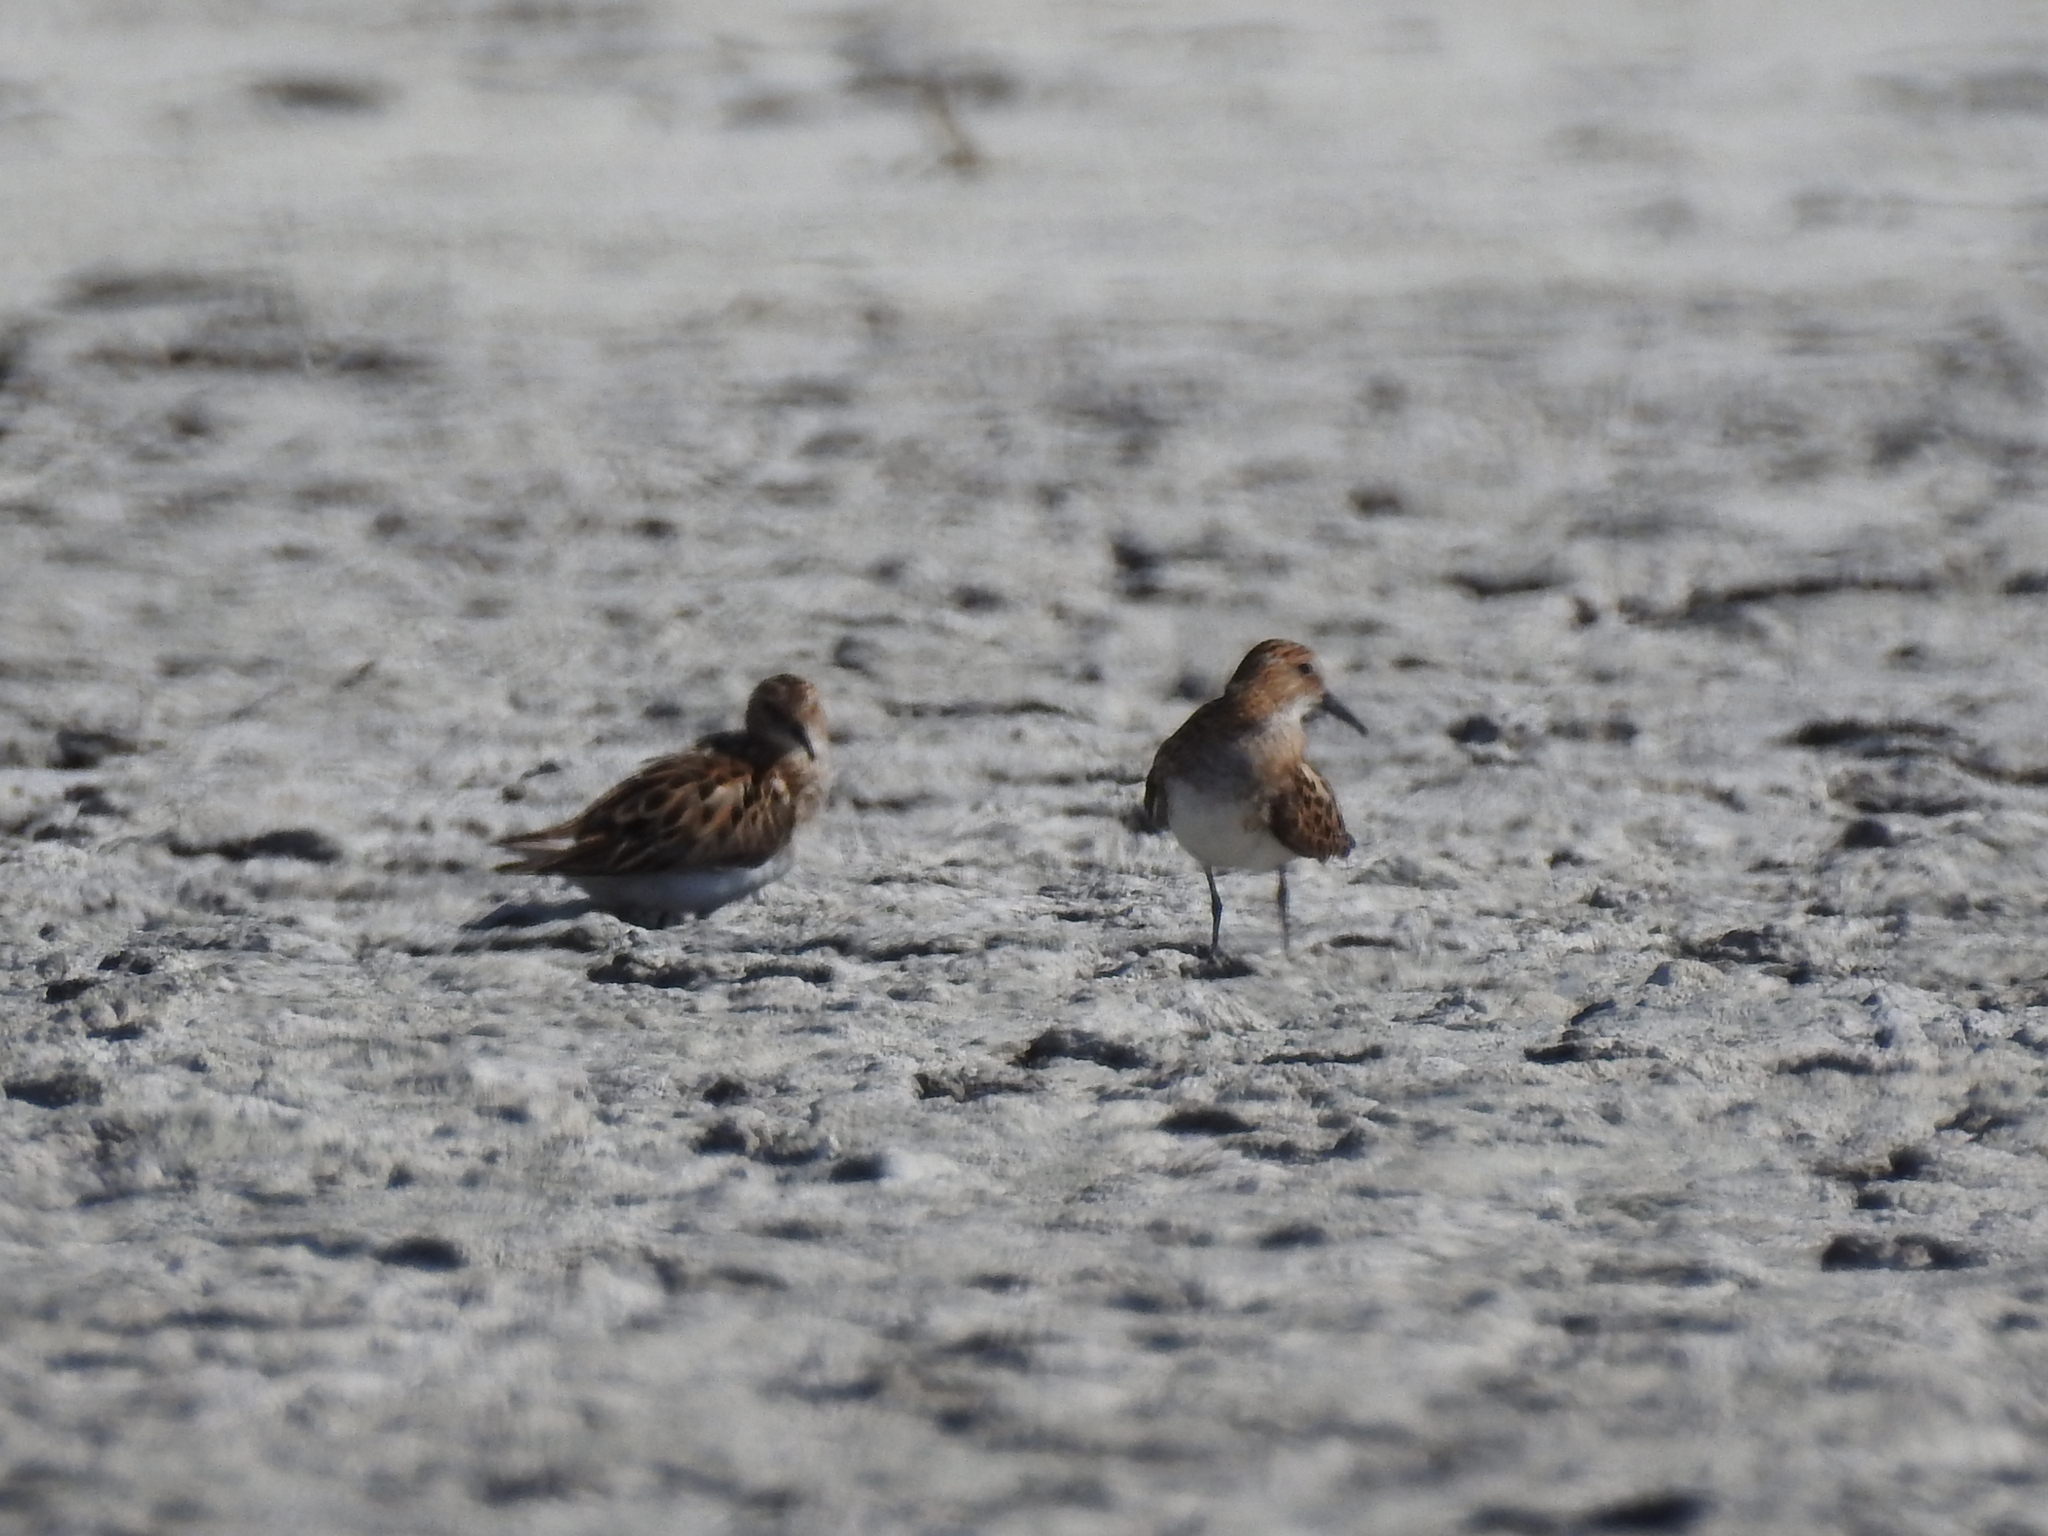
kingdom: Animalia
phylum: Chordata
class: Aves
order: Charadriiformes
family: Scolopacidae
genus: Calidris
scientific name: Calidris minuta
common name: Little stint
